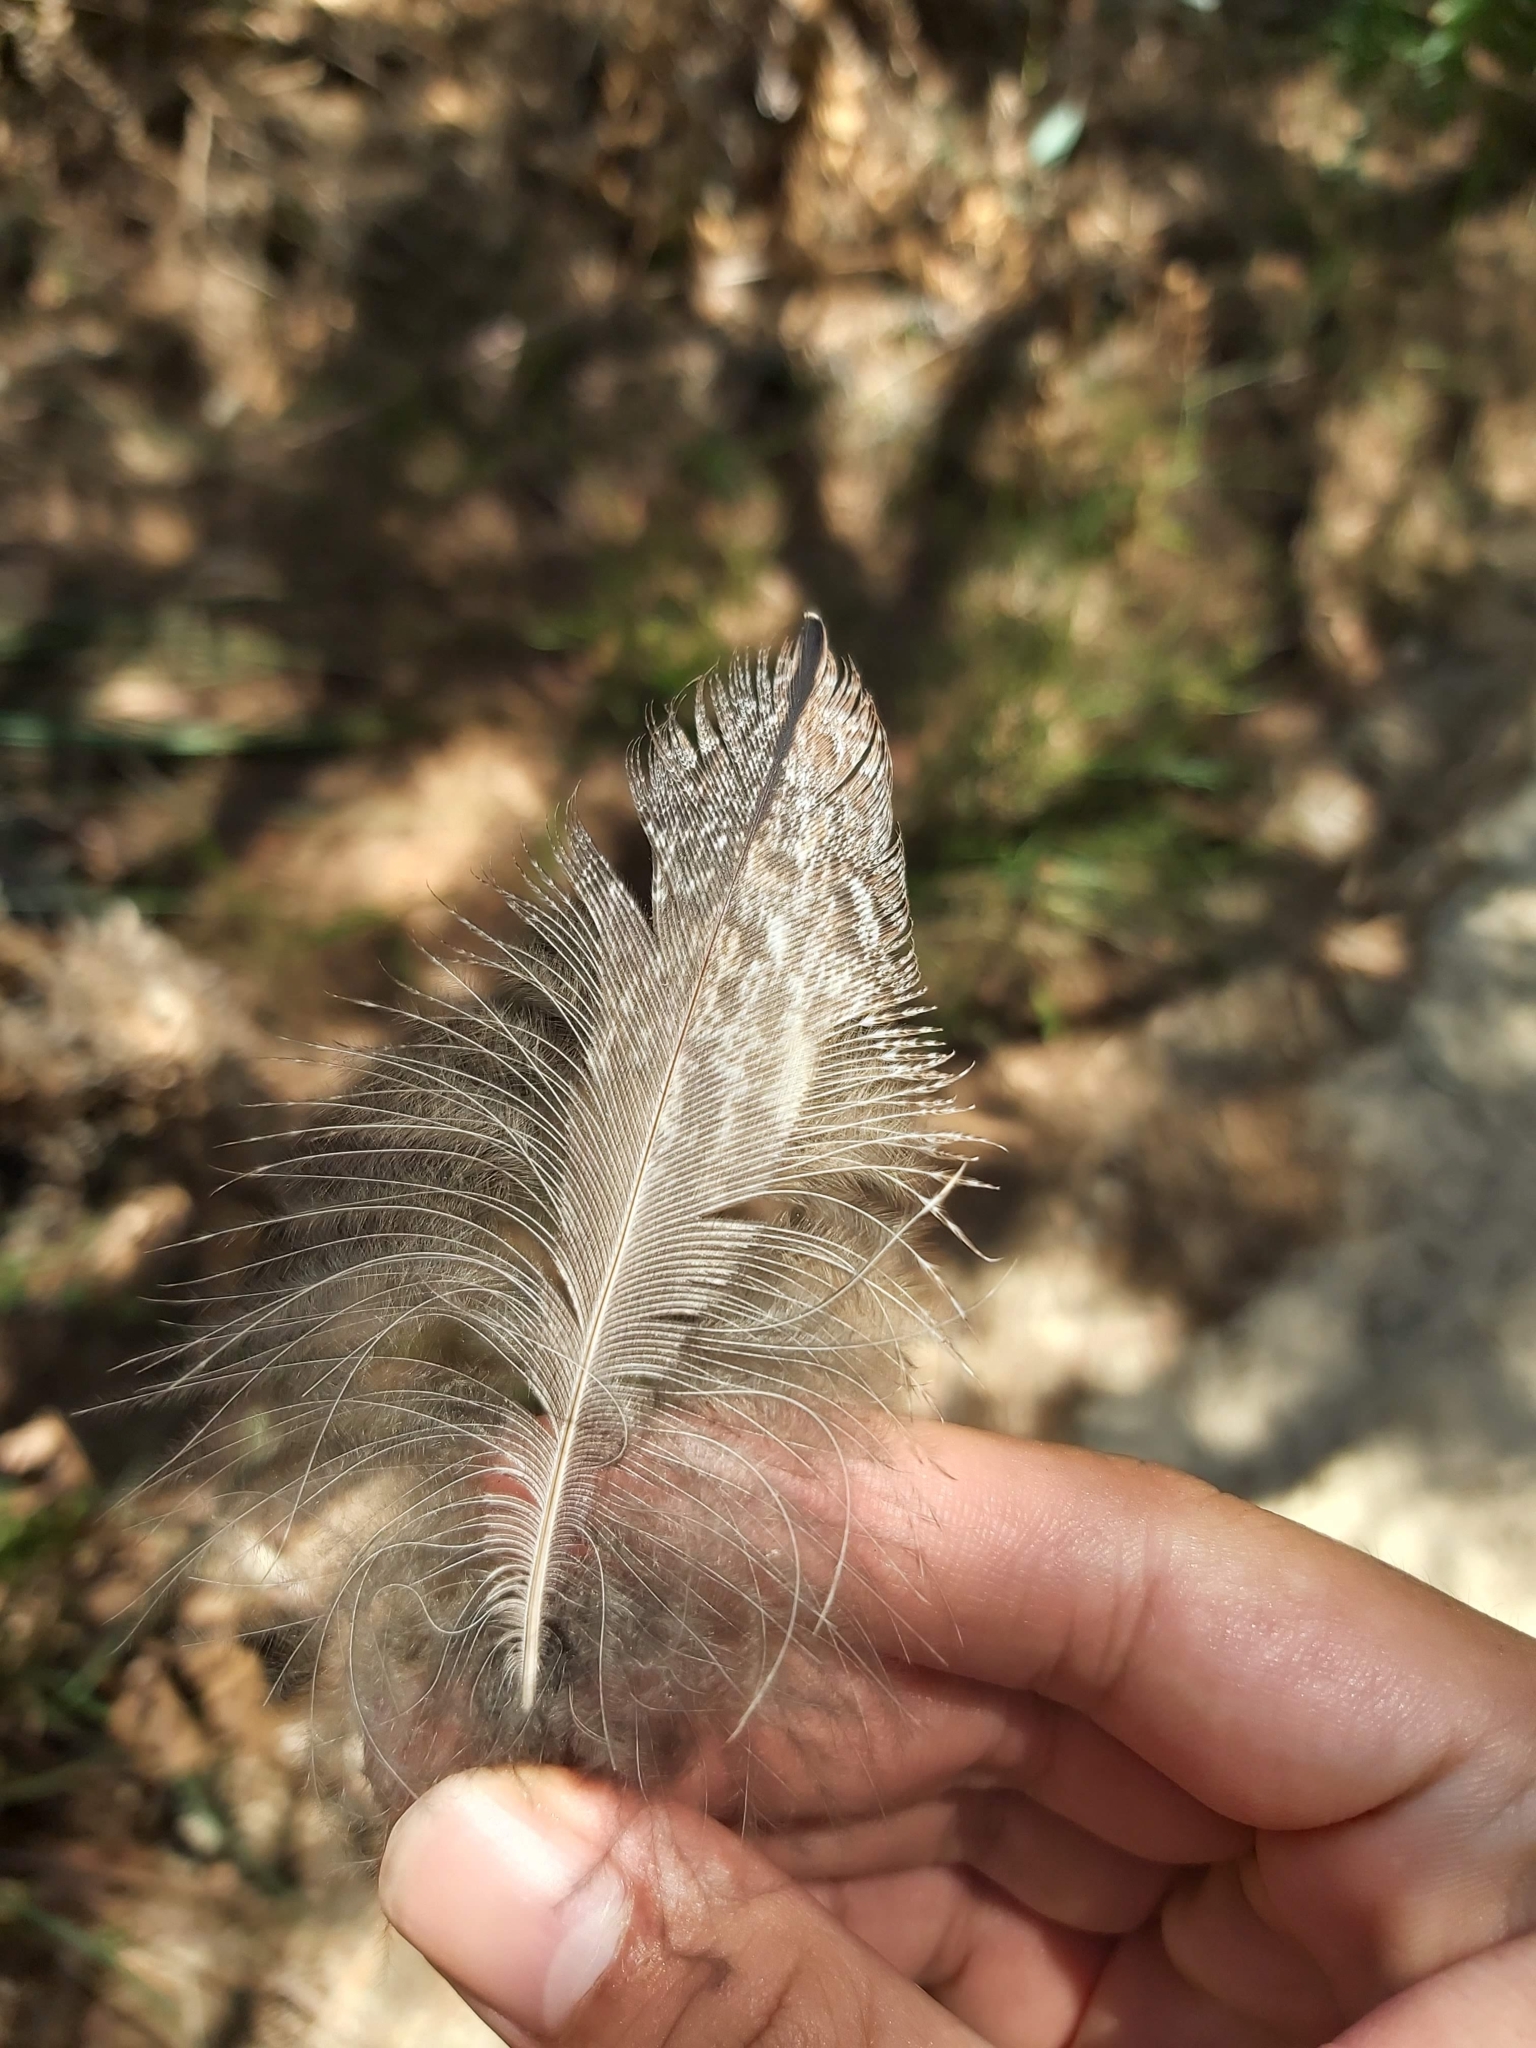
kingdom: Animalia
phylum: Chordata
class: Aves
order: Caprimulgiformes
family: Podargidae
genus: Podargus
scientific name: Podargus strigoides
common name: Tawny frogmouth
